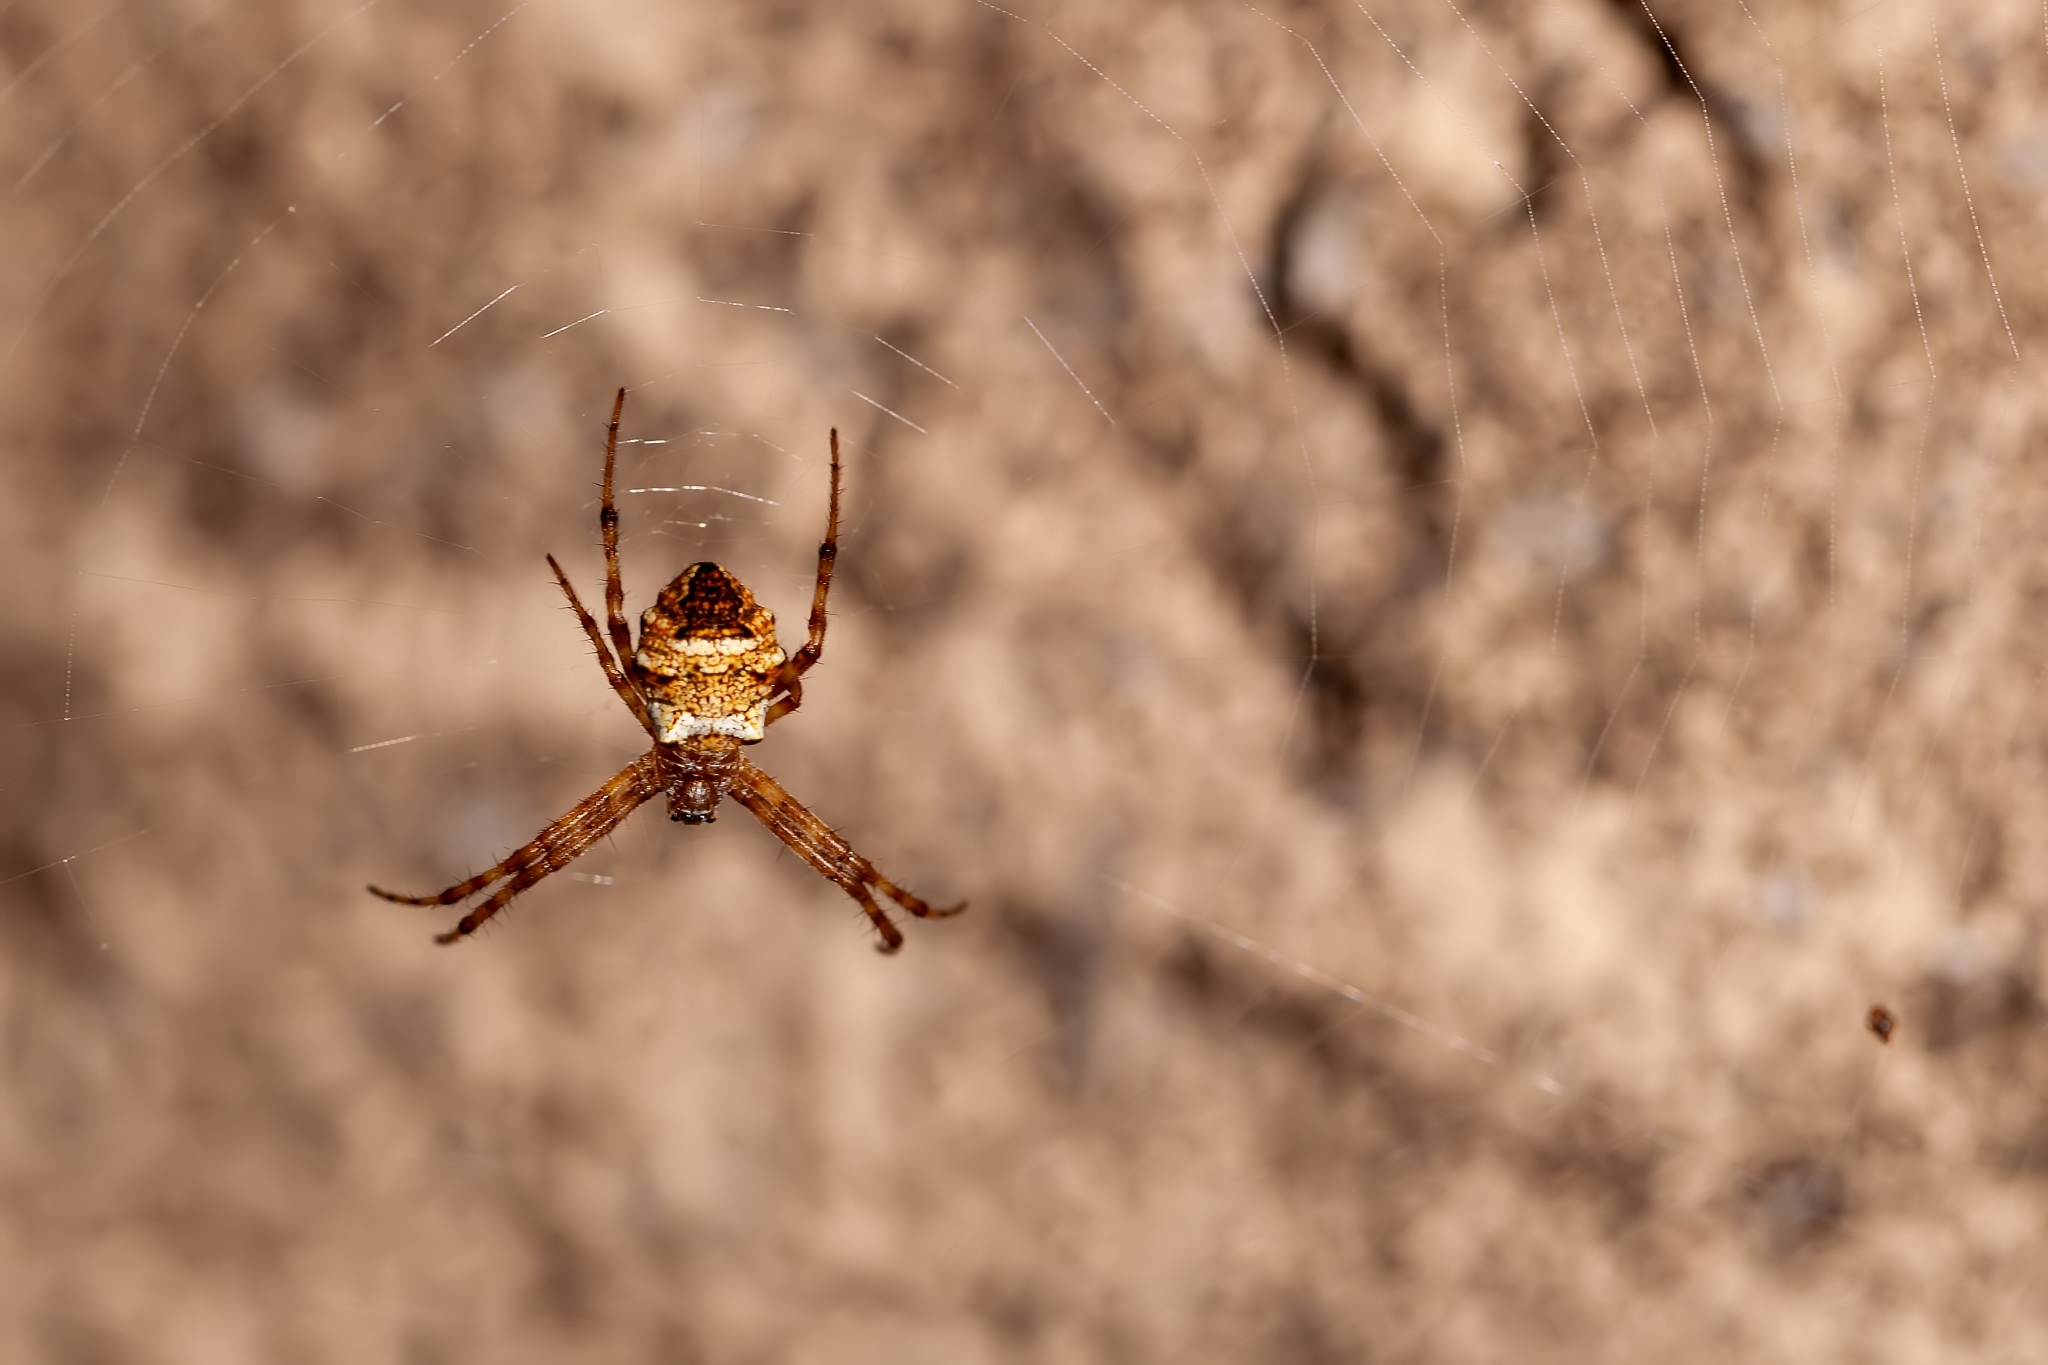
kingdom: Animalia
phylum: Arthropoda
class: Arachnida
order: Araneae
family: Araneidae
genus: Gea
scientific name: Gea heptagon
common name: Orb weavers
